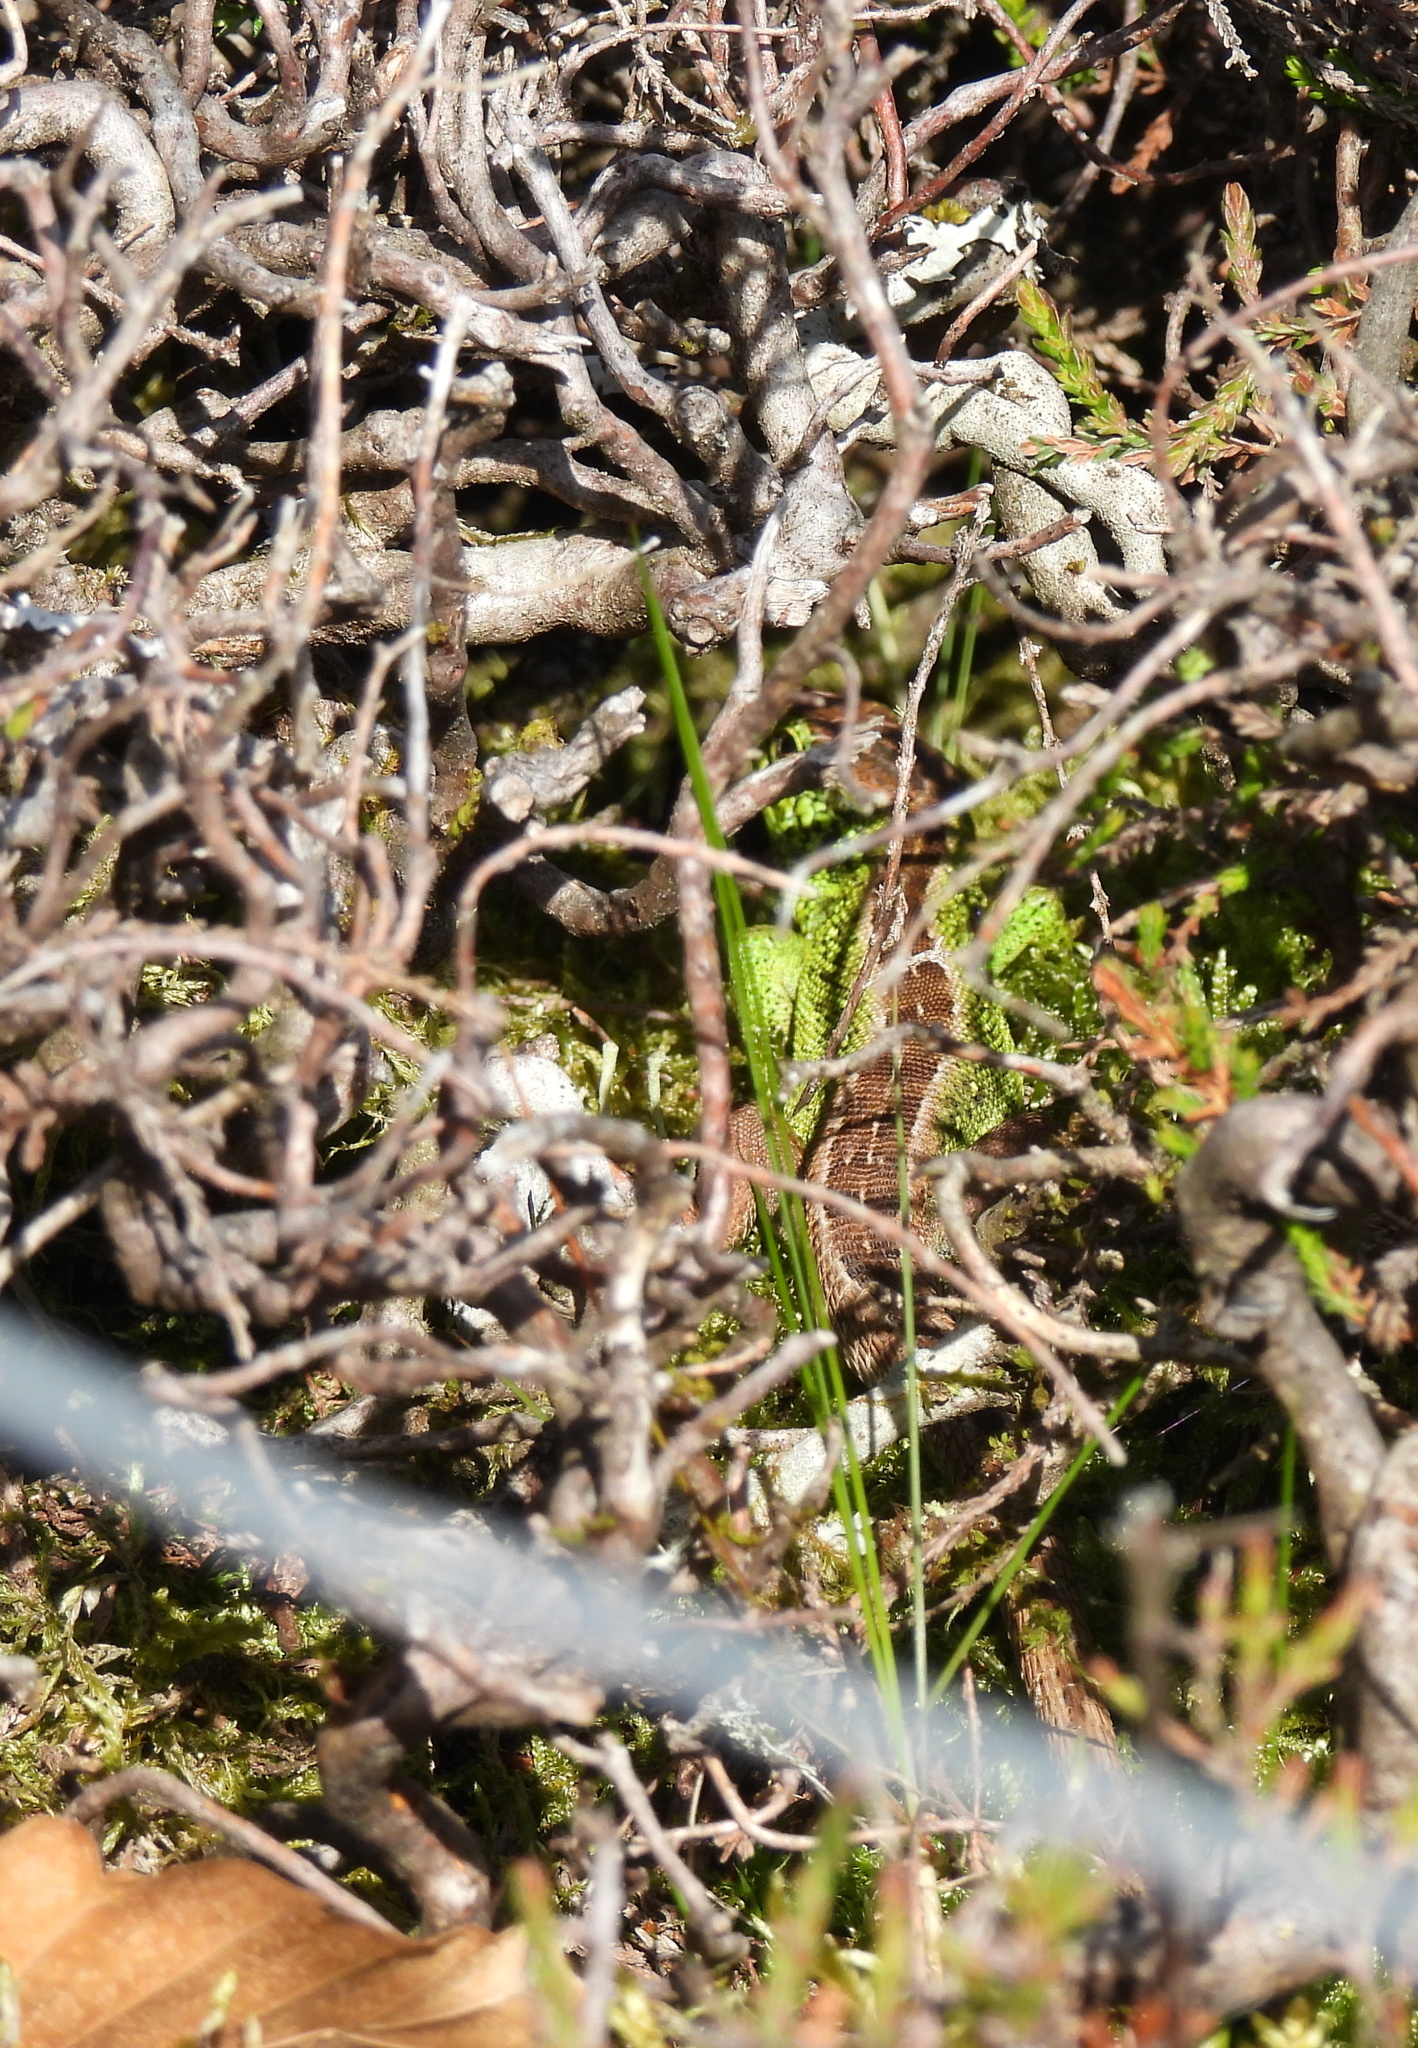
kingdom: Animalia
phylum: Chordata
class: Squamata
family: Lacertidae
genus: Lacerta
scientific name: Lacerta agilis
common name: Sand lizard
